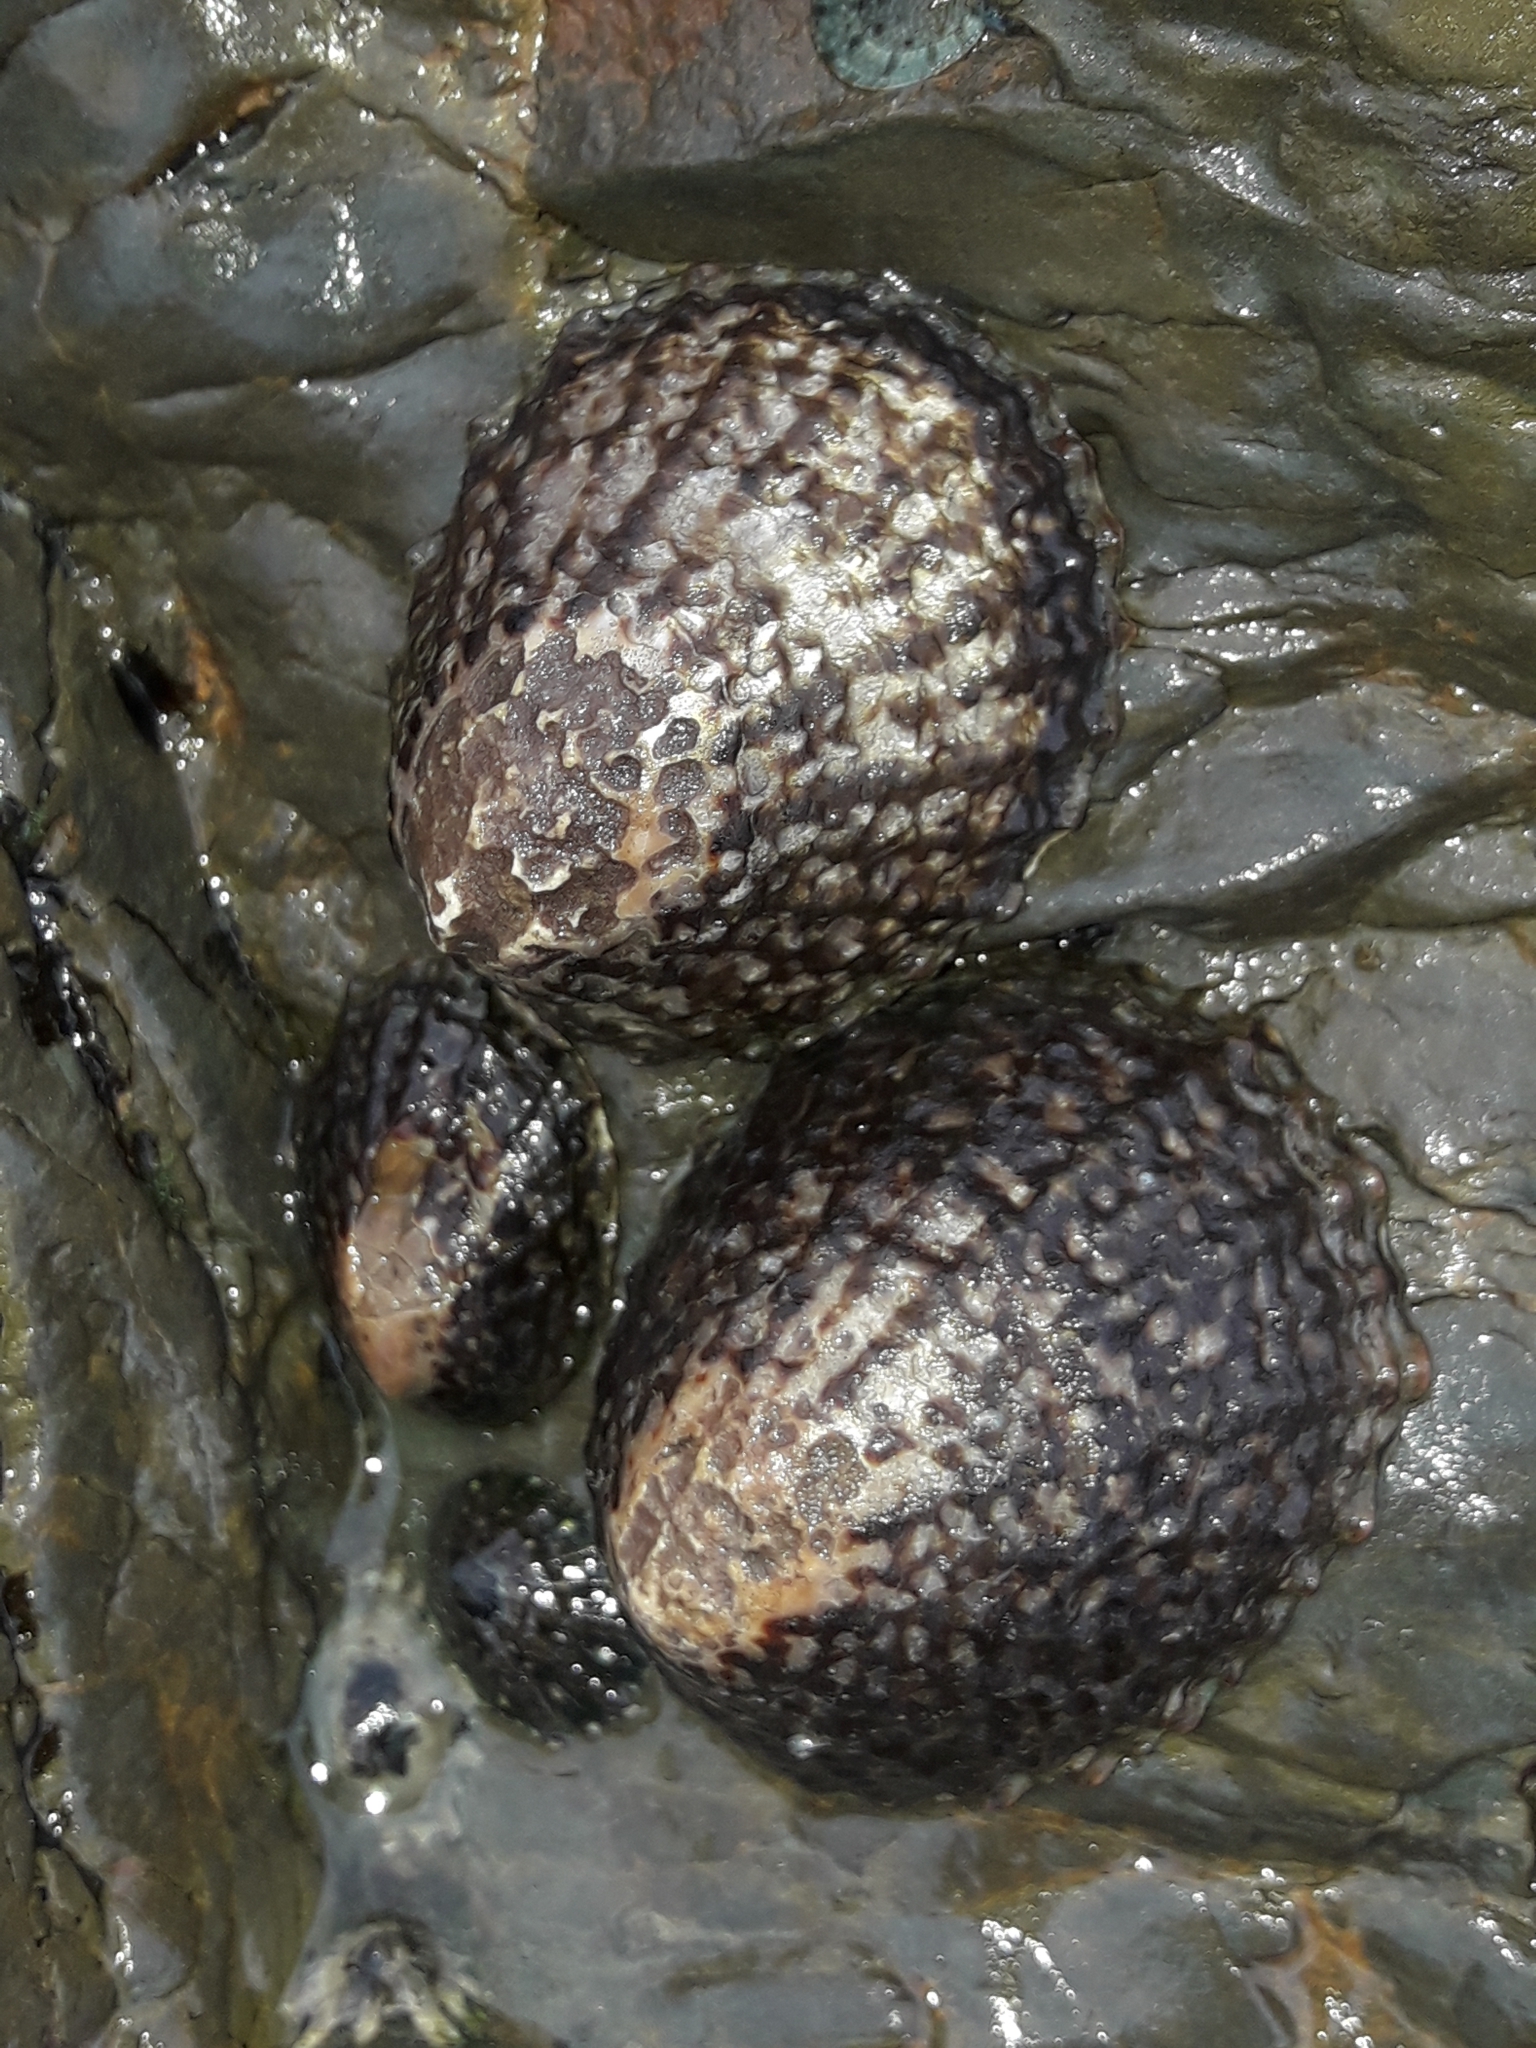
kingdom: Animalia
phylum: Mollusca
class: Gastropoda
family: Nacellidae
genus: Cellana
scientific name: Cellana denticulata
